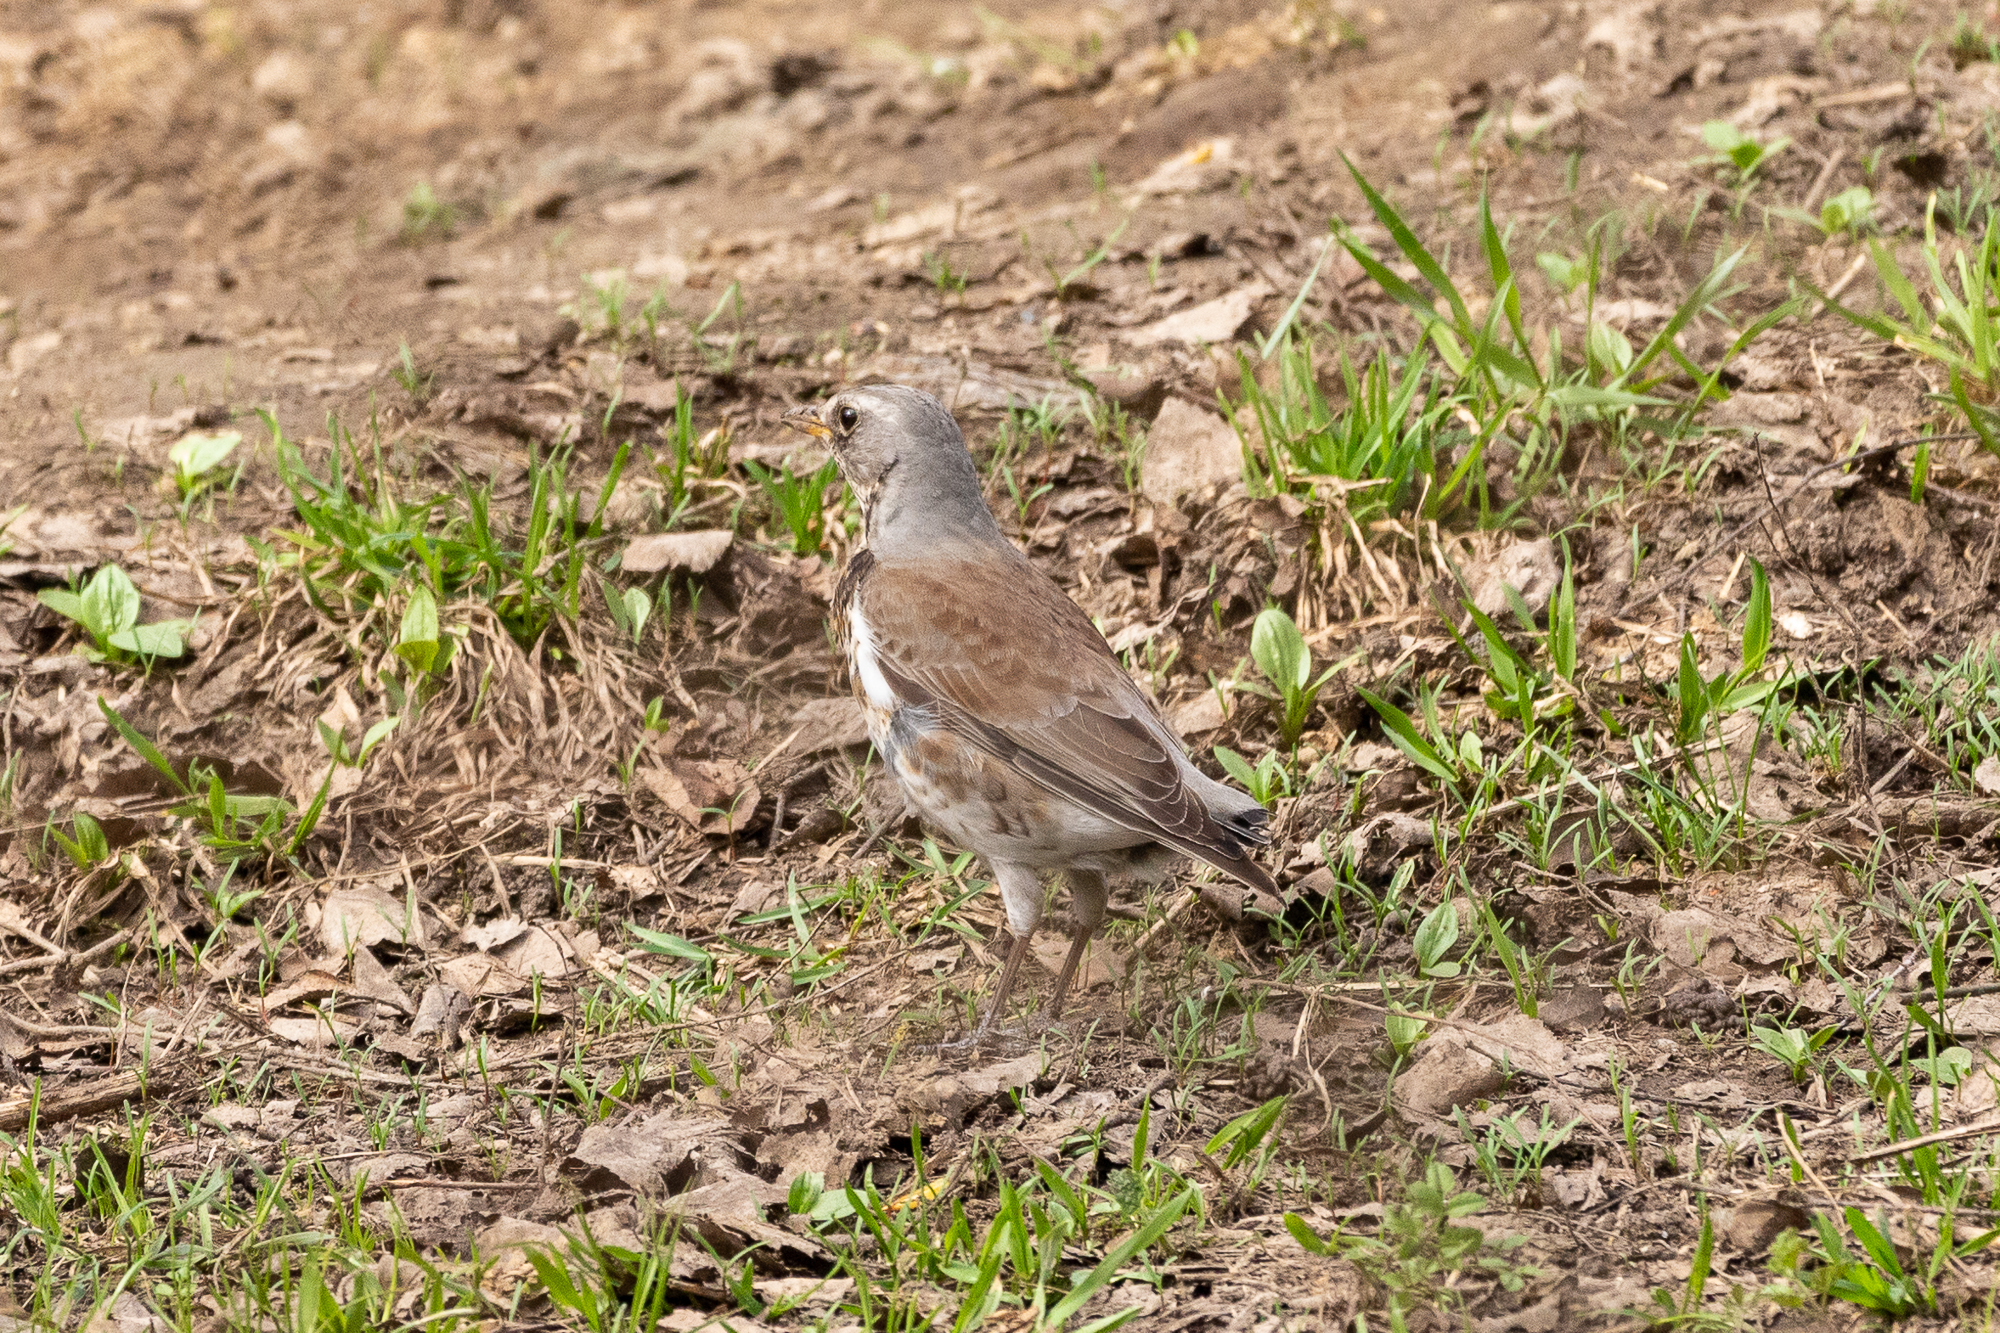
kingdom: Animalia
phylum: Chordata
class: Aves
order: Passeriformes
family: Turdidae
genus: Turdus
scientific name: Turdus pilaris
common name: Fieldfare
